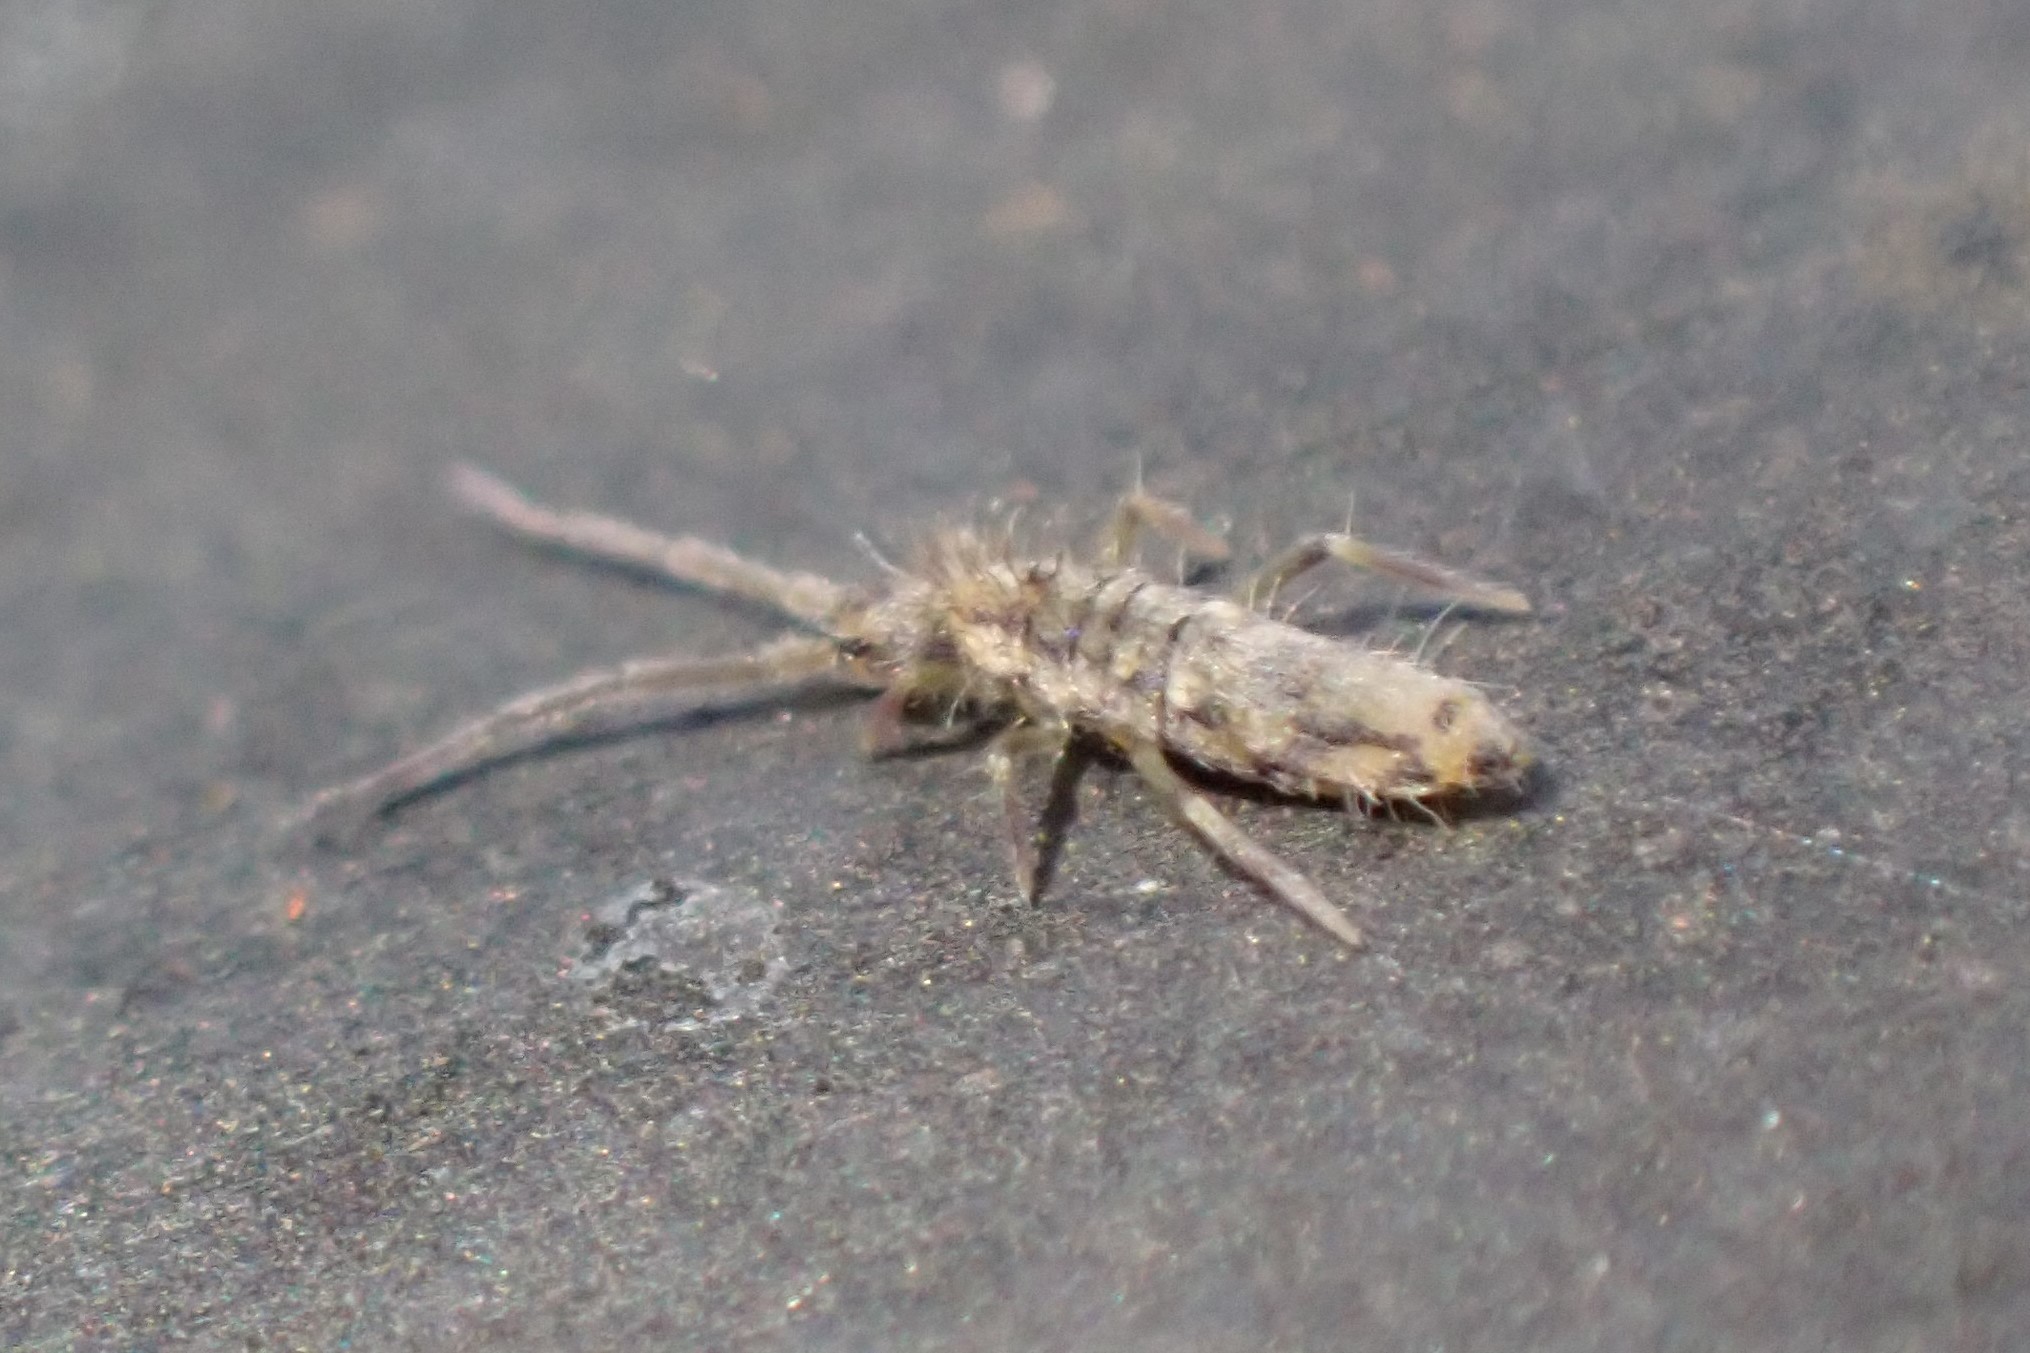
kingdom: Animalia
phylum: Arthropoda
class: Collembola
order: Entomobryomorpha
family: Entomobryidae
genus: Entomobrya
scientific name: Entomobrya katzi
